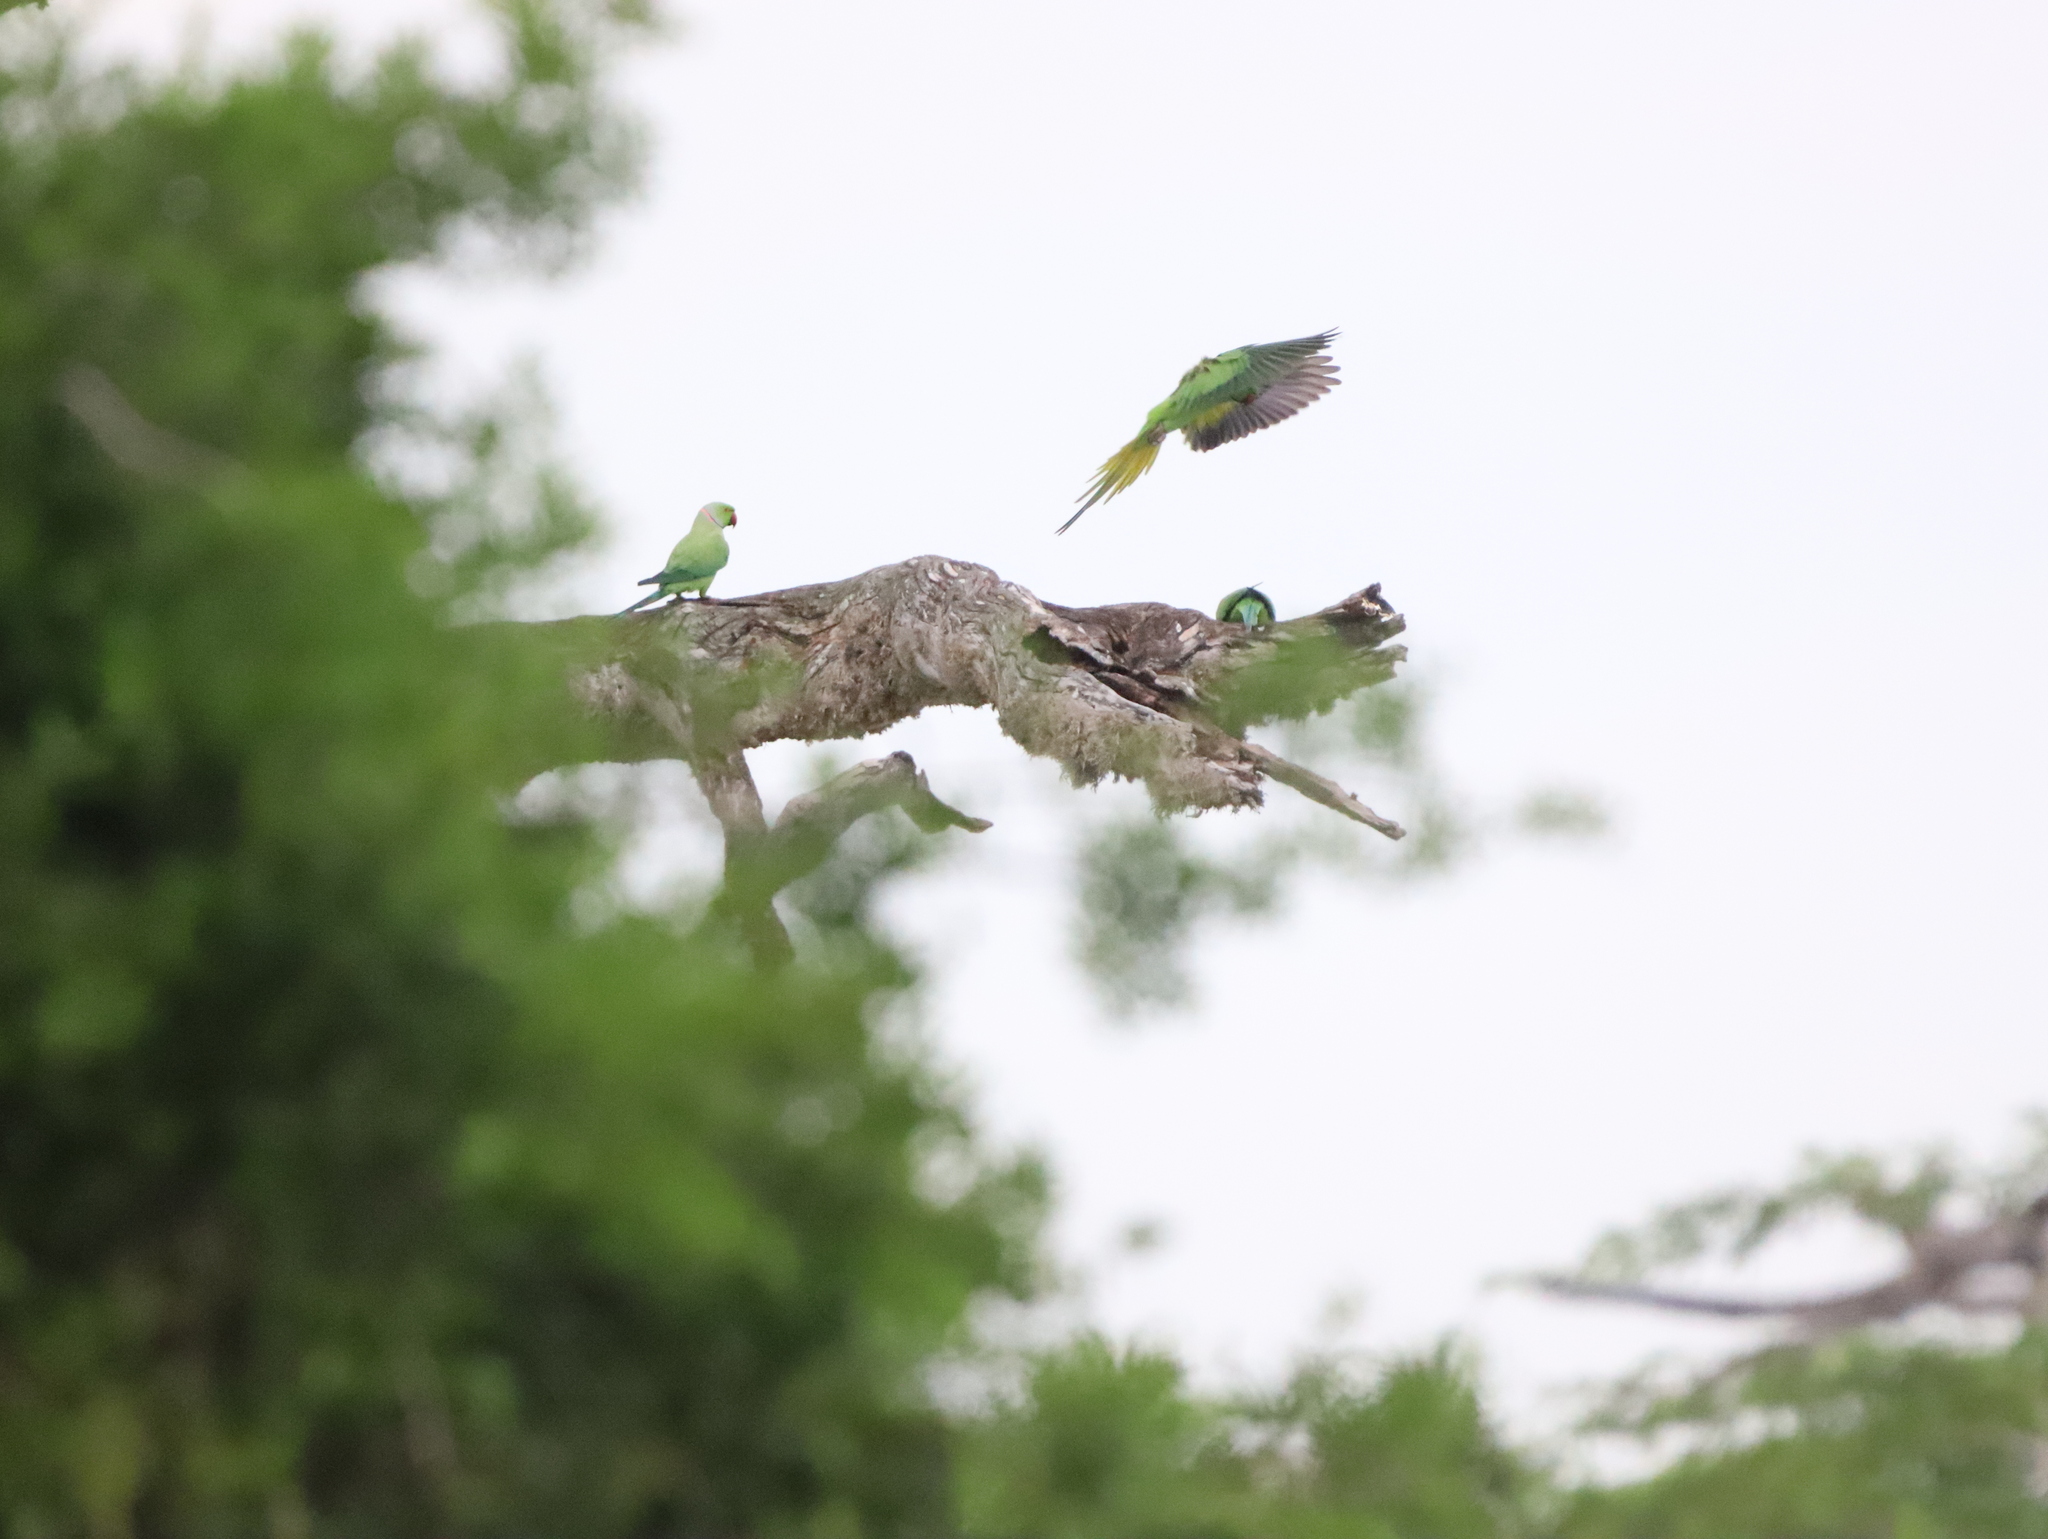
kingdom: Animalia
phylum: Chordata
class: Aves
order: Psittaciformes
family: Psittacidae
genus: Psittacula
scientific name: Psittacula krameri
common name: Rose-ringed parakeet
